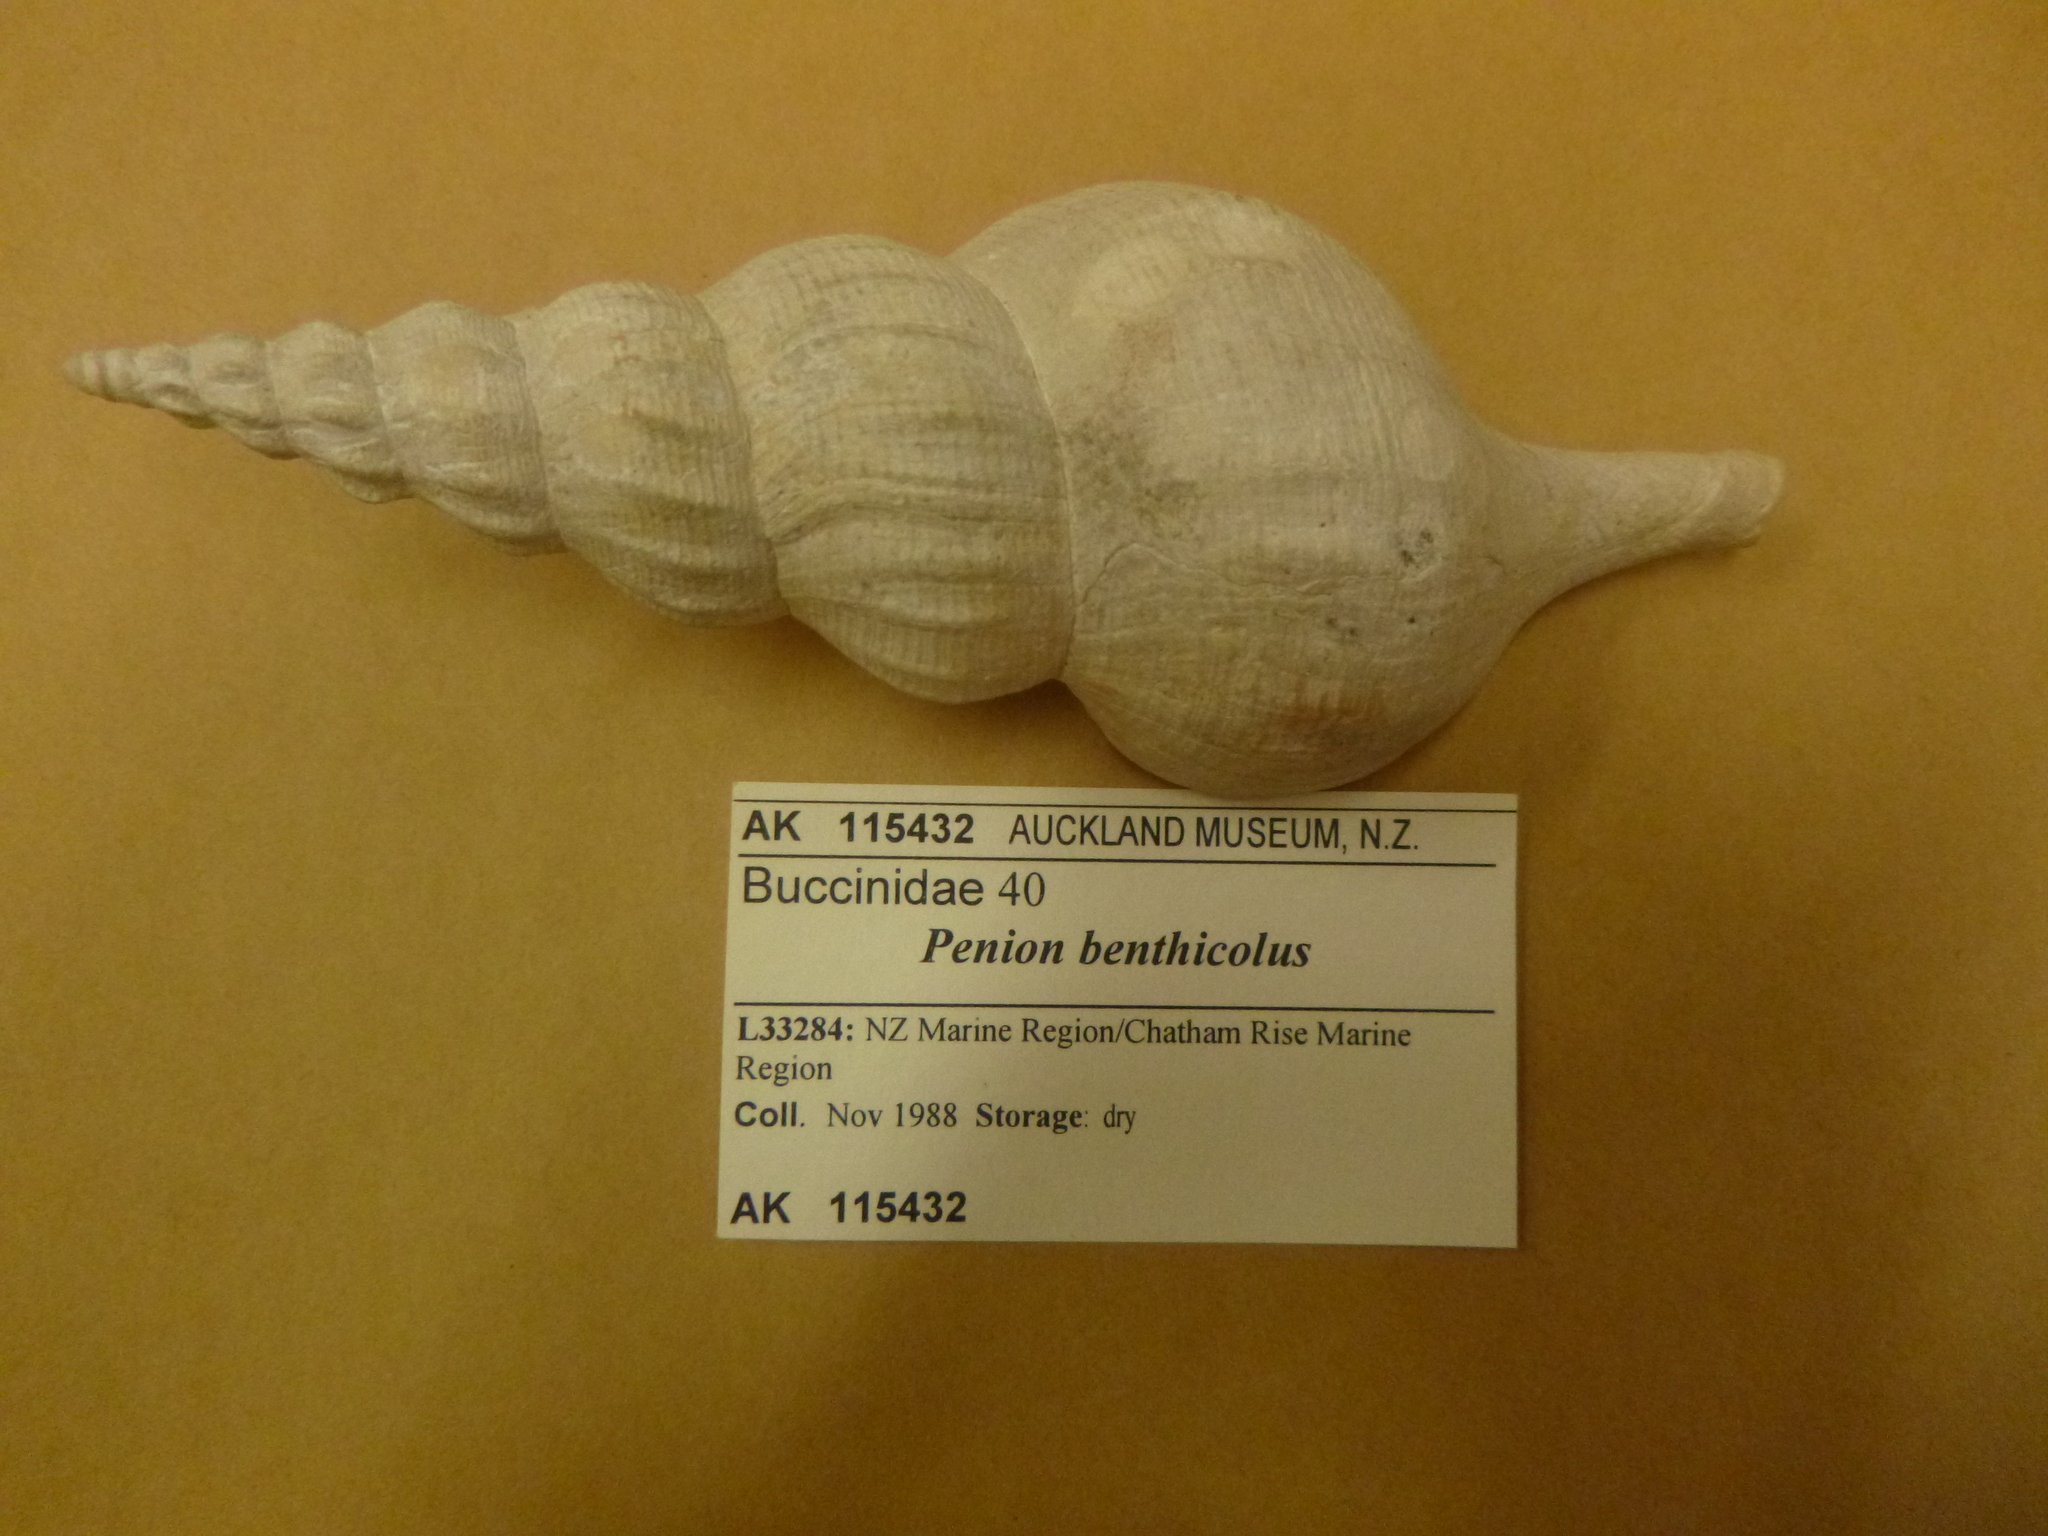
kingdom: Animalia
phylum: Mollusca
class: Gastropoda
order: Neogastropoda
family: Austrosiphonidae
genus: Antarctoneptunea
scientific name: Antarctoneptunea benthicola
